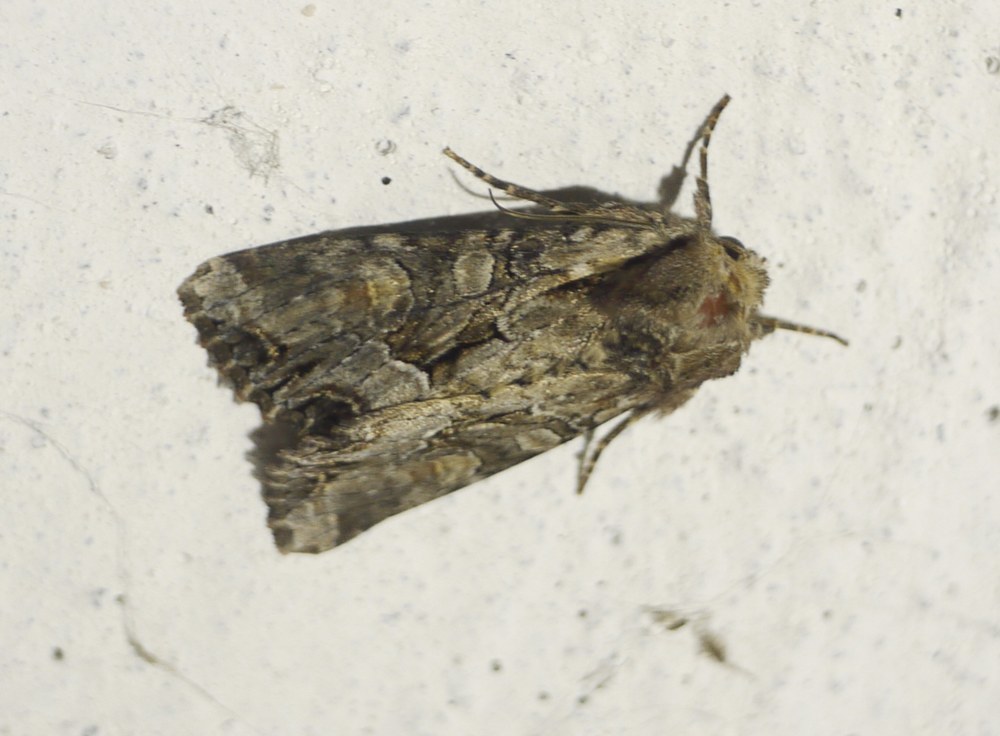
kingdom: Animalia
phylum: Arthropoda
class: Insecta
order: Lepidoptera
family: Noctuidae
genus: Lacanobia
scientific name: Lacanobia w-latinum
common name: Light brocade
